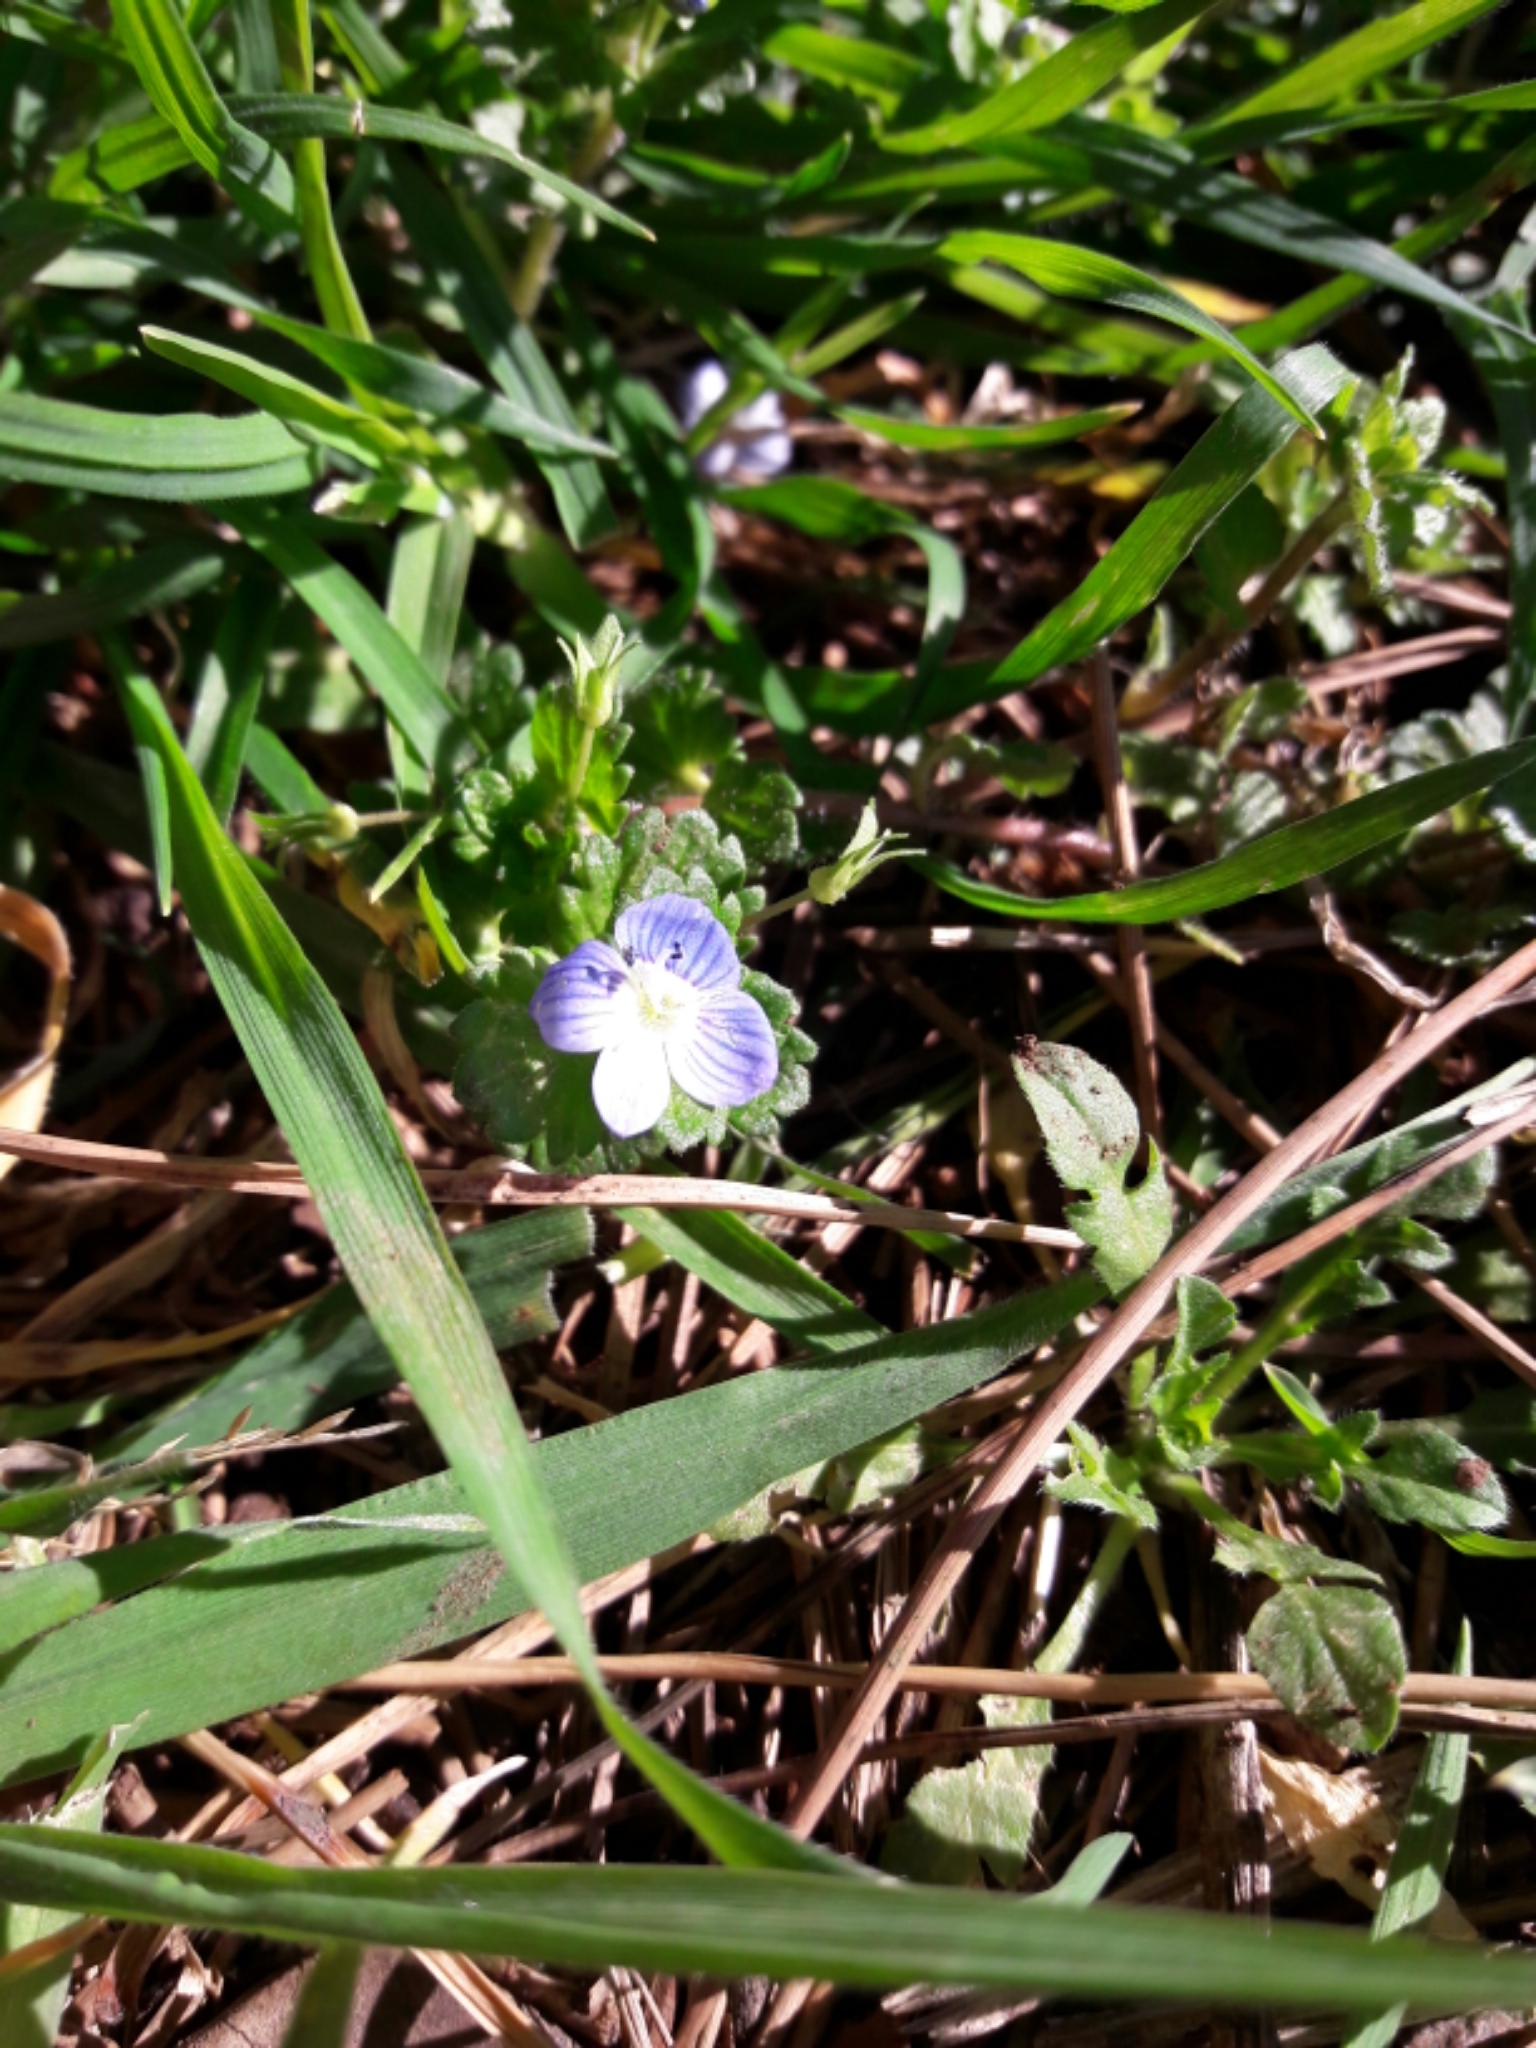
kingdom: Plantae
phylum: Tracheophyta
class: Magnoliopsida
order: Lamiales
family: Plantaginaceae
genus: Veronica
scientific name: Veronica persica
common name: Common field-speedwell
